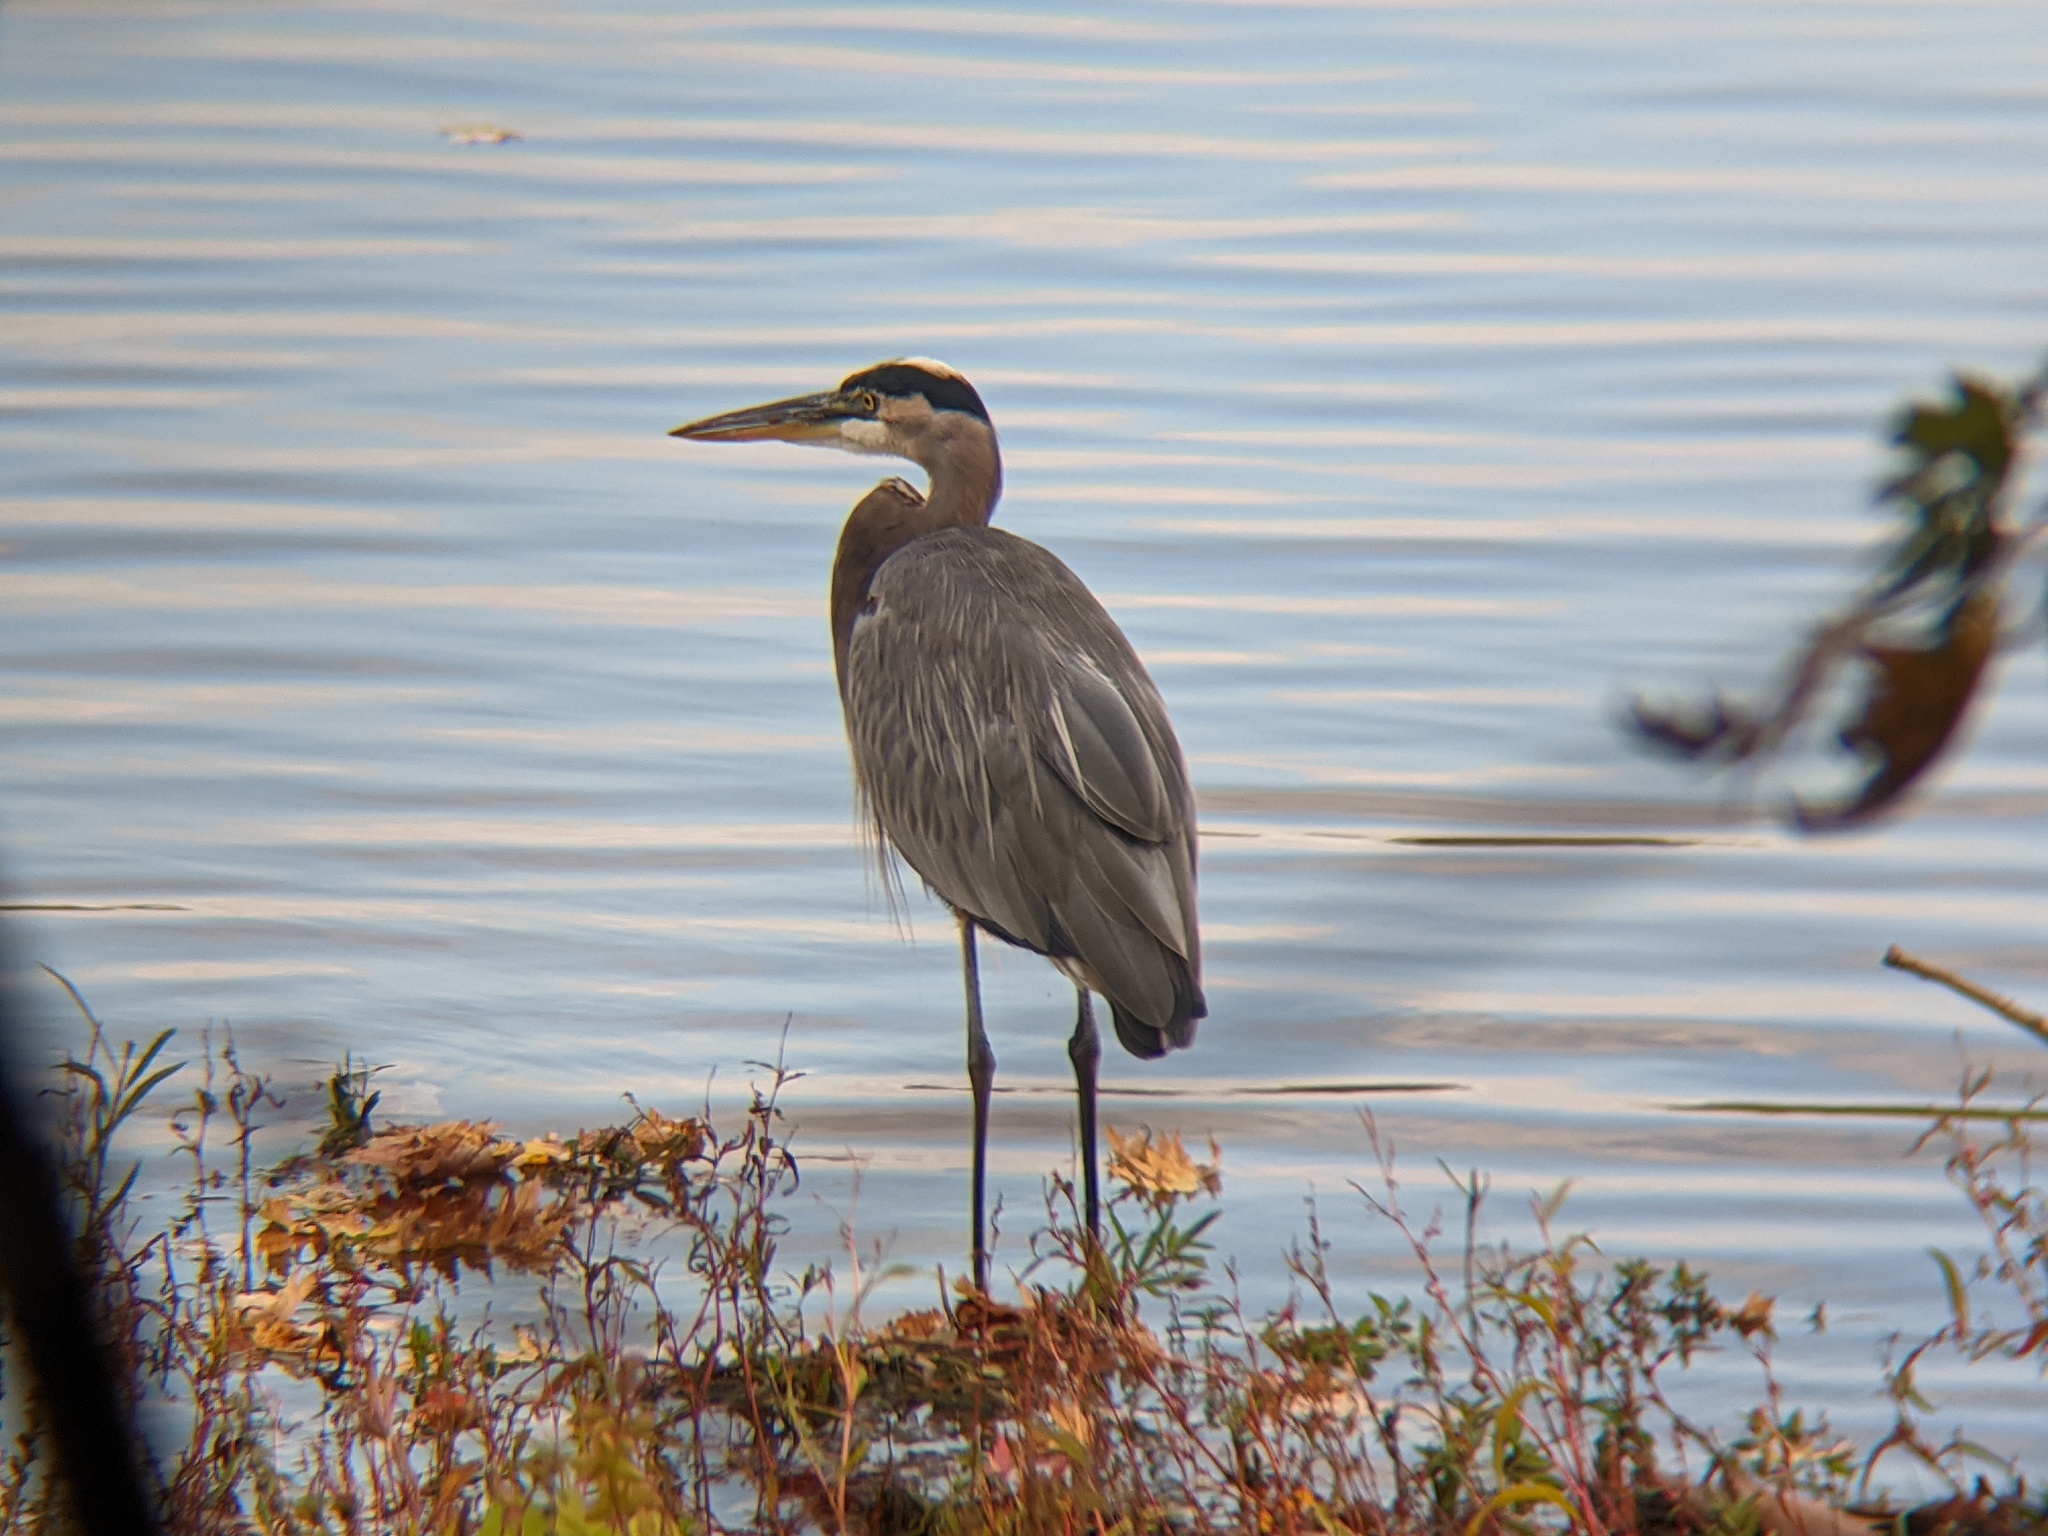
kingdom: Animalia
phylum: Chordata
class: Aves
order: Pelecaniformes
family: Ardeidae
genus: Ardea
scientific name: Ardea herodias
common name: Great blue heron
